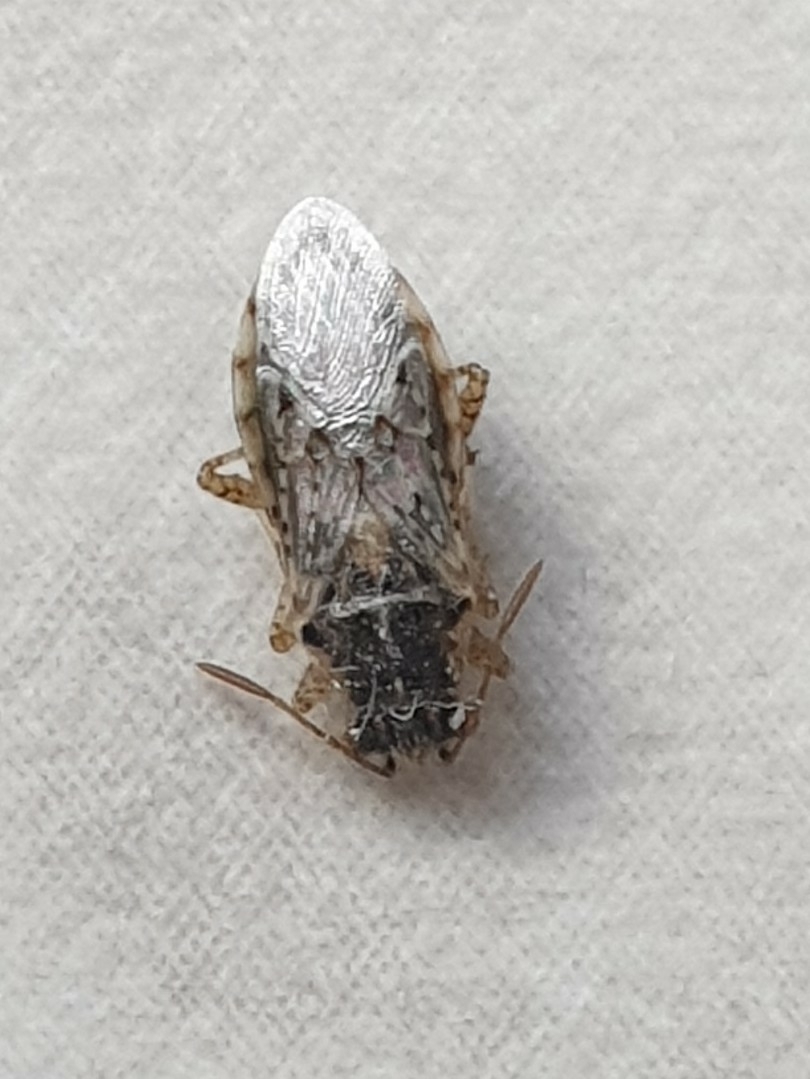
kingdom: Animalia
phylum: Arthropoda
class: Insecta
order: Hemiptera
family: Rhopalidae
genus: Brachycarenus
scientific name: Brachycarenus tigrinus
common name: Scentless plant bug
